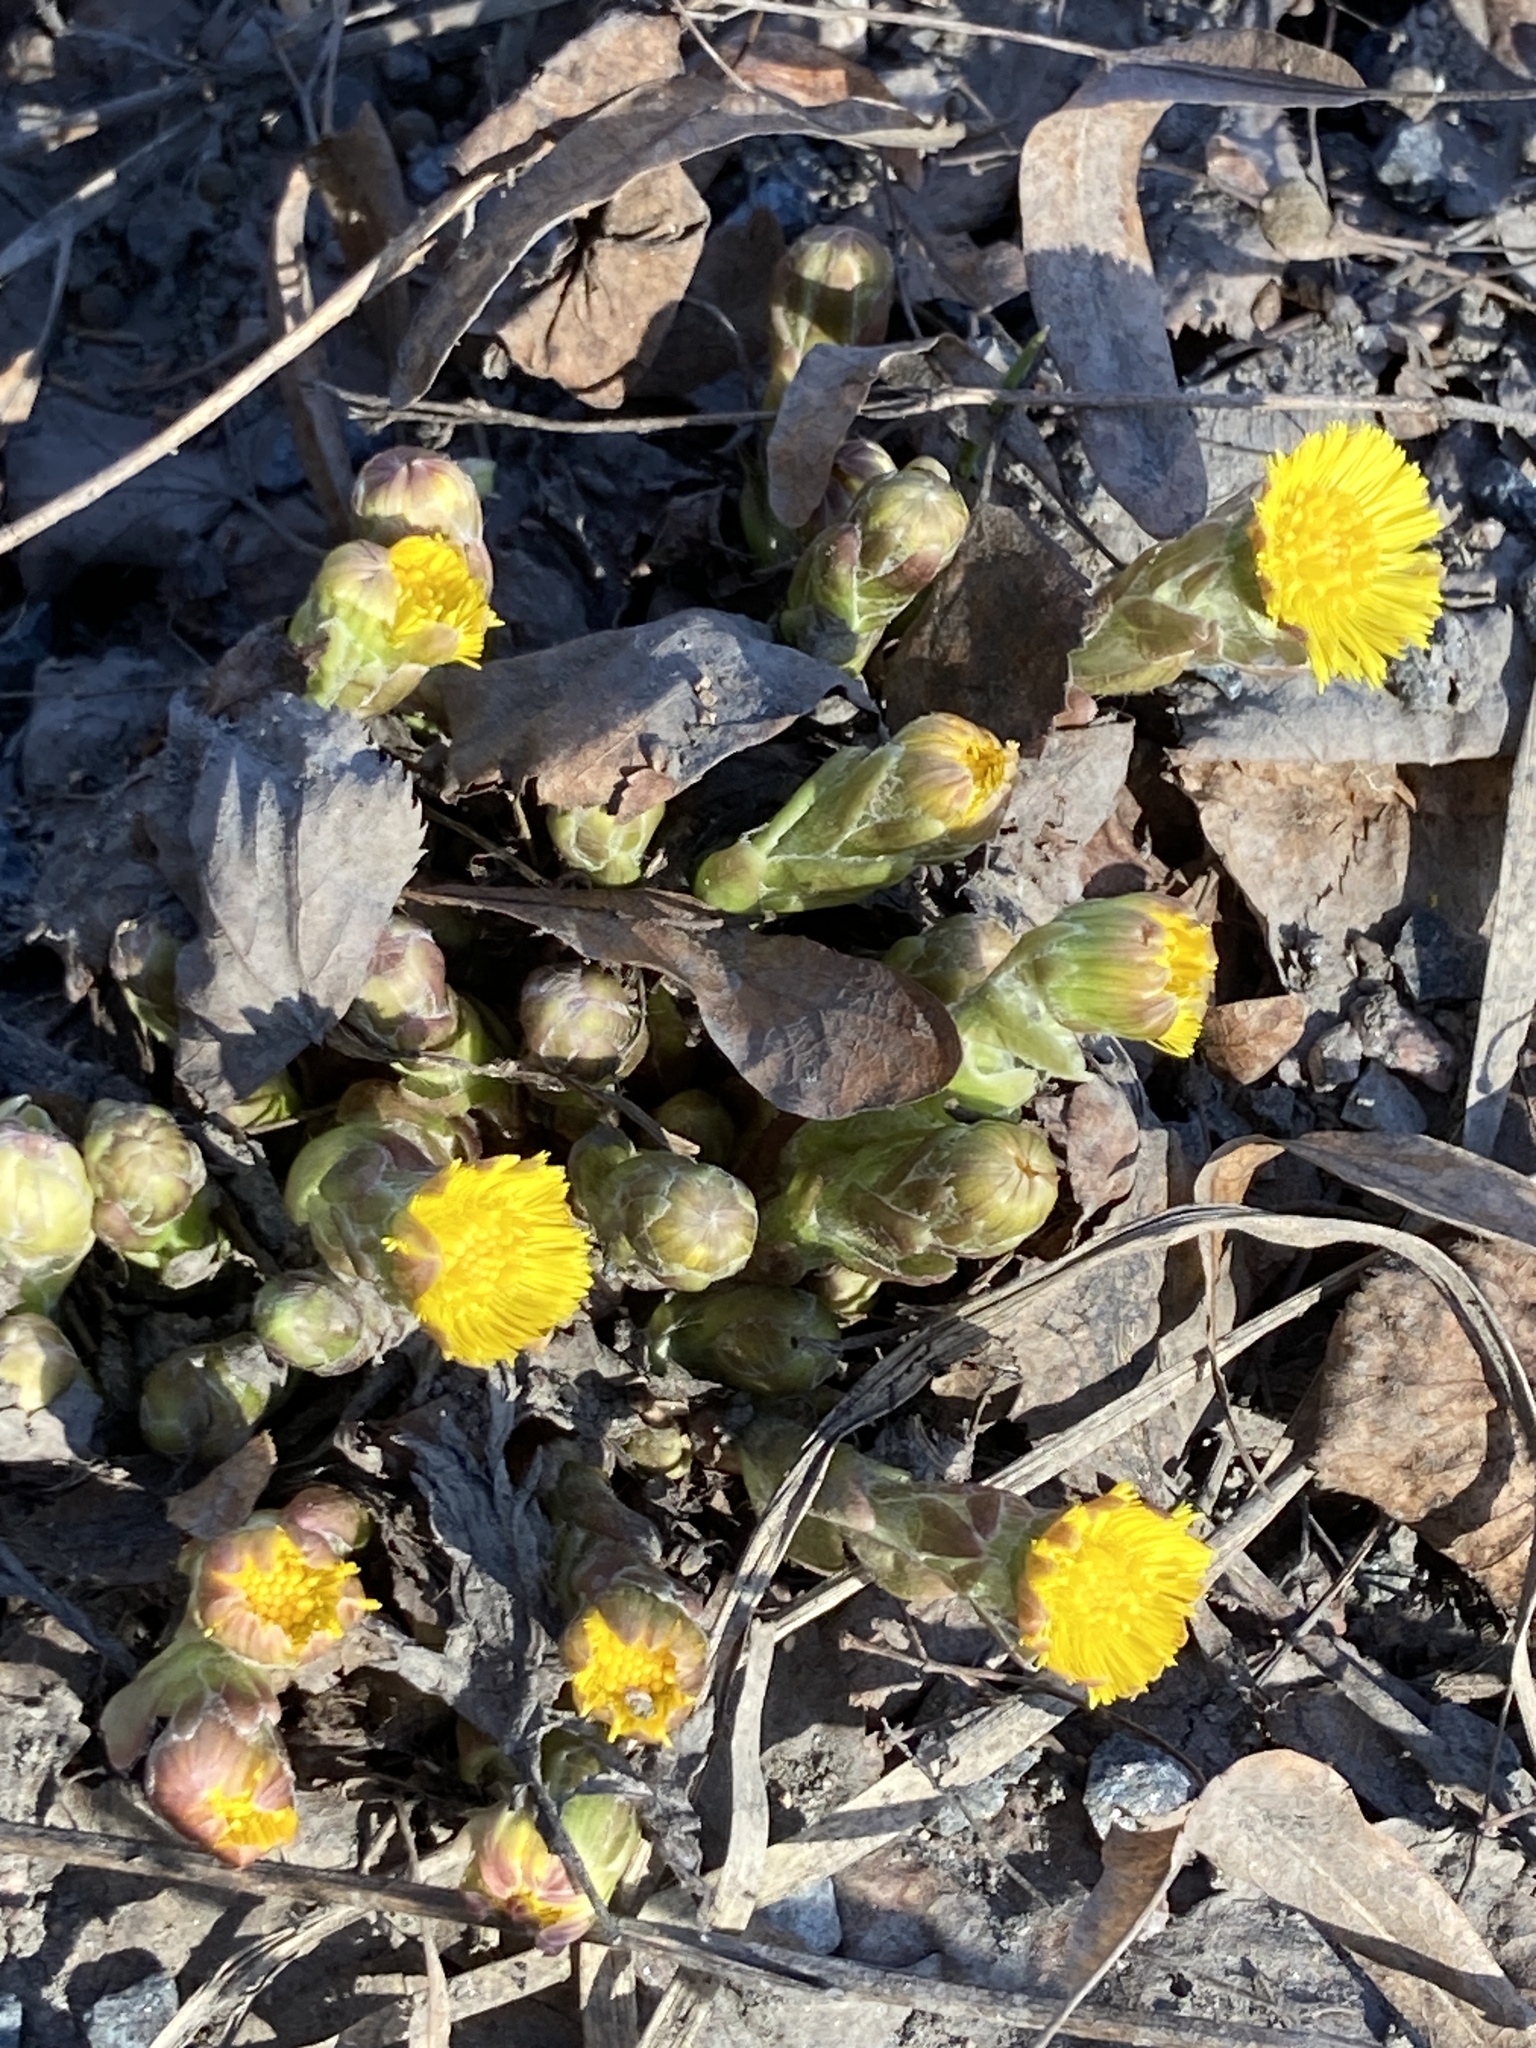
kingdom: Plantae
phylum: Tracheophyta
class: Magnoliopsida
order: Asterales
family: Asteraceae
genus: Tussilago
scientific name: Tussilago farfara
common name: Coltsfoot
